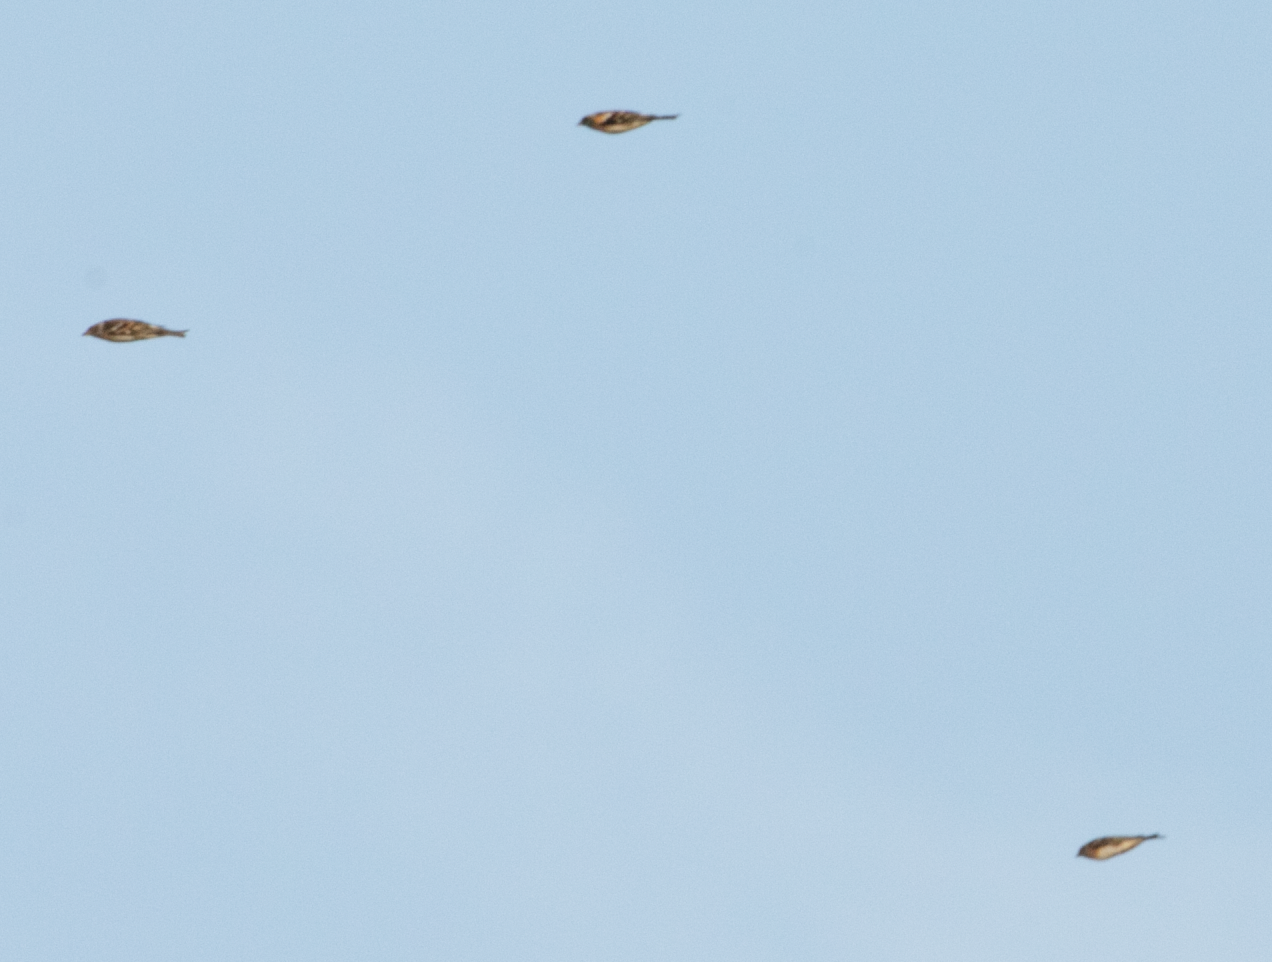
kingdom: Animalia
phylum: Chordata
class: Aves
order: Passeriformes
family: Fringillidae
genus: Fringilla
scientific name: Fringilla montifringilla
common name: Brambling
